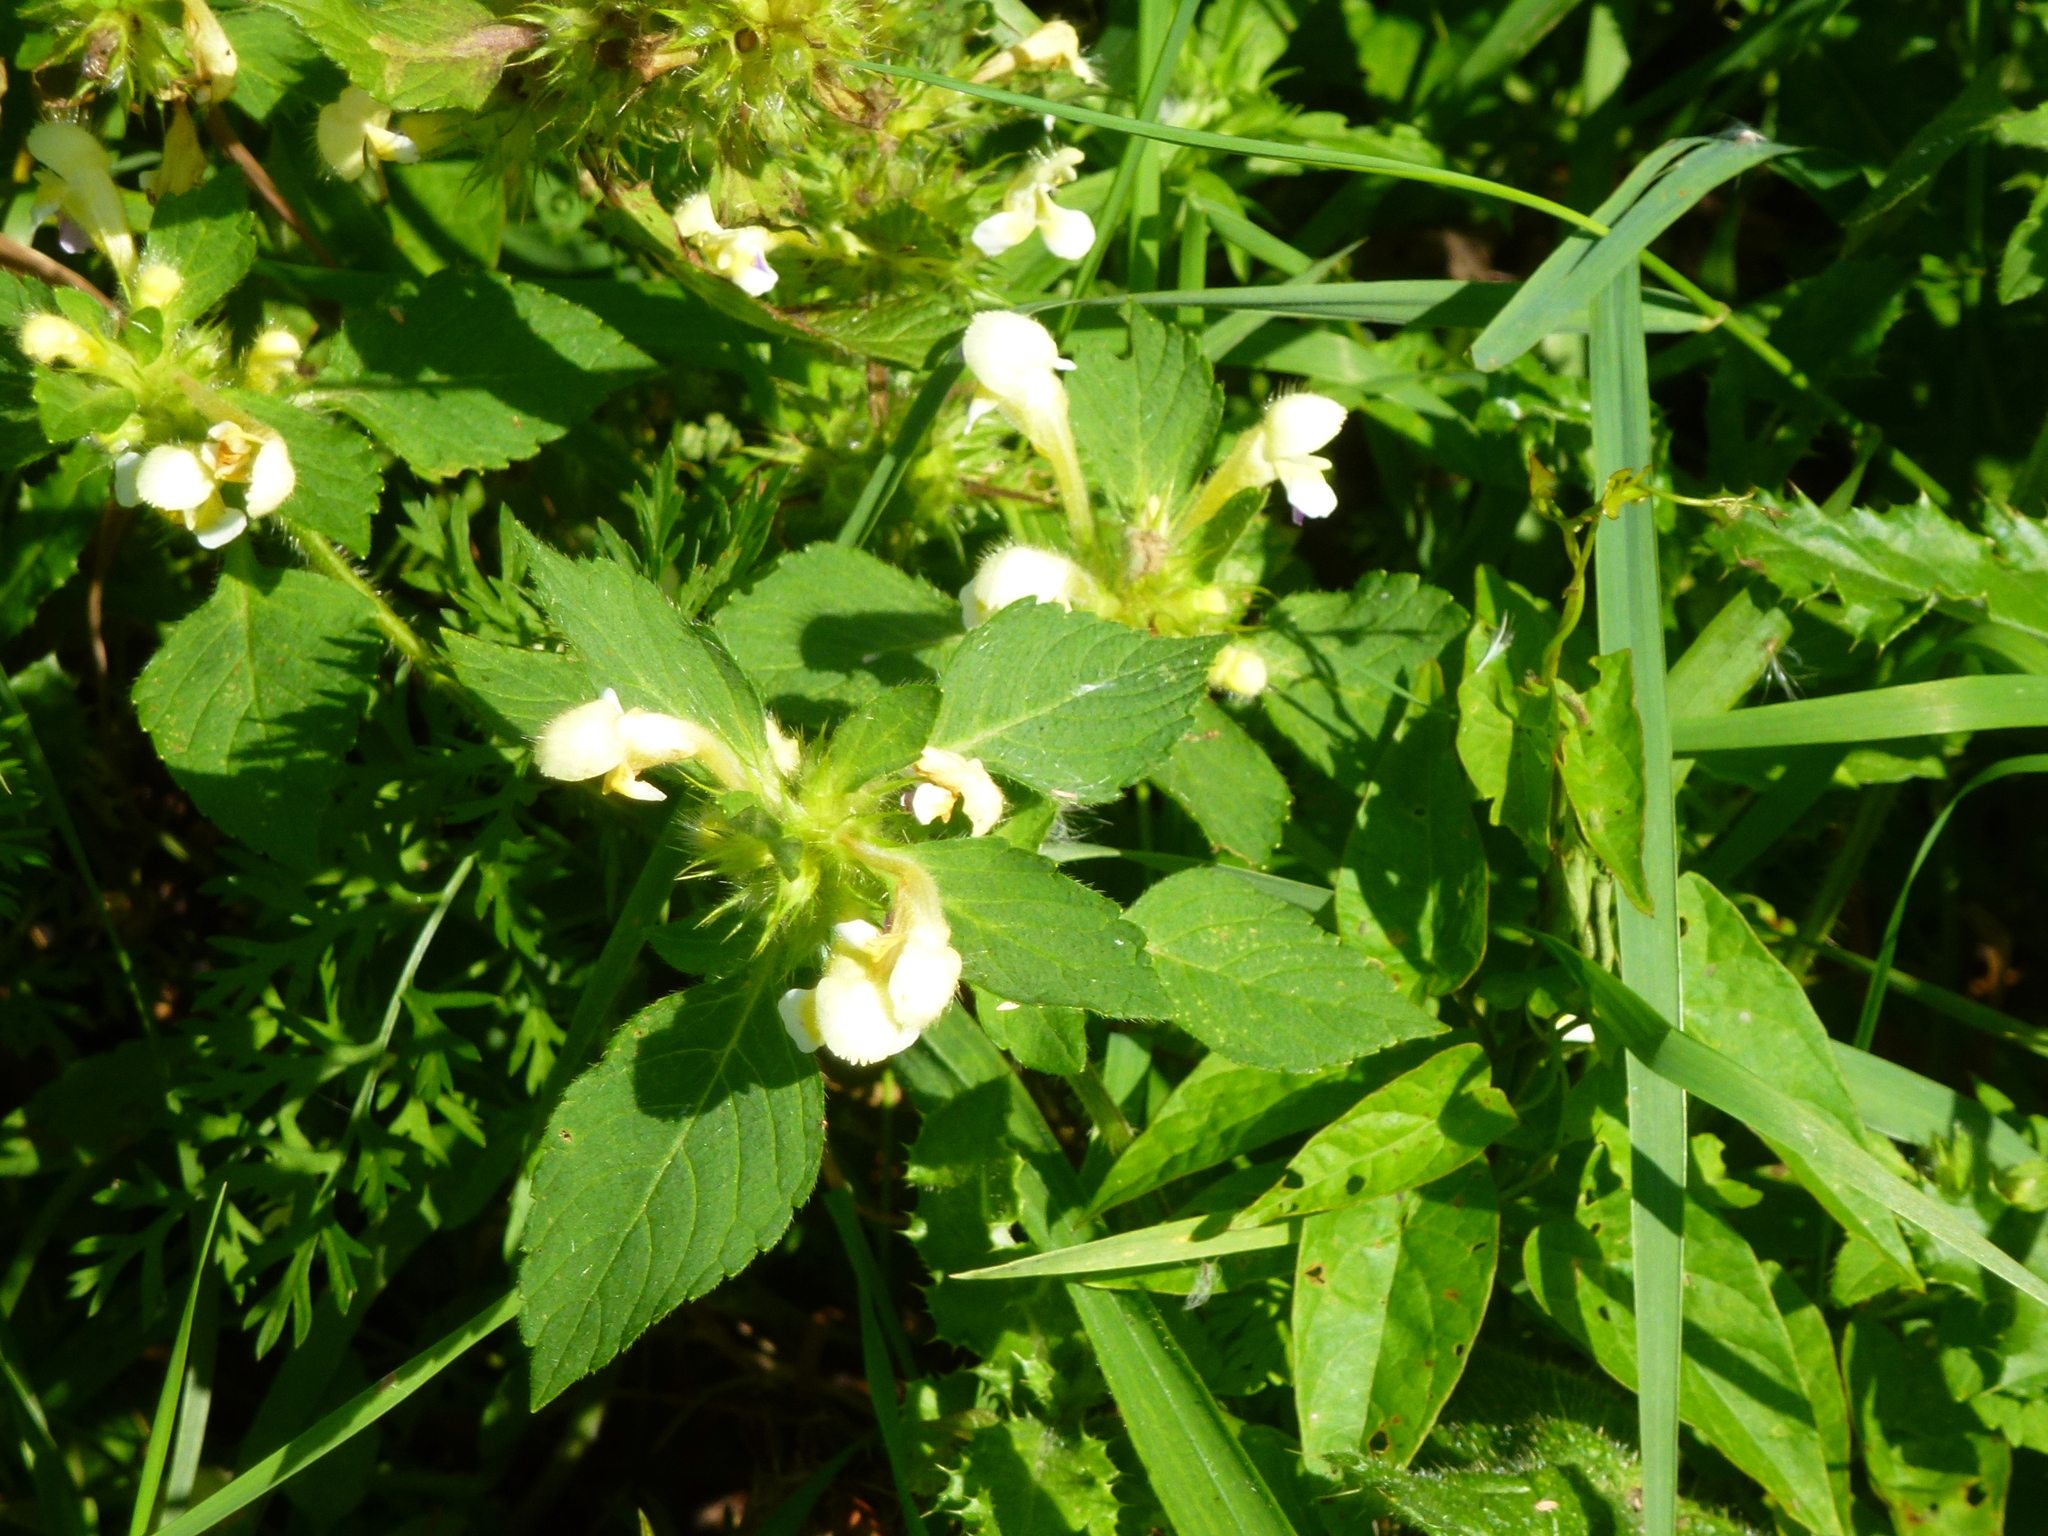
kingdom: Plantae
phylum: Tracheophyta
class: Magnoliopsida
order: Lamiales
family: Lamiaceae
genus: Galeopsis
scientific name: Galeopsis speciosa
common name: Large-flowered hemp-nettle
